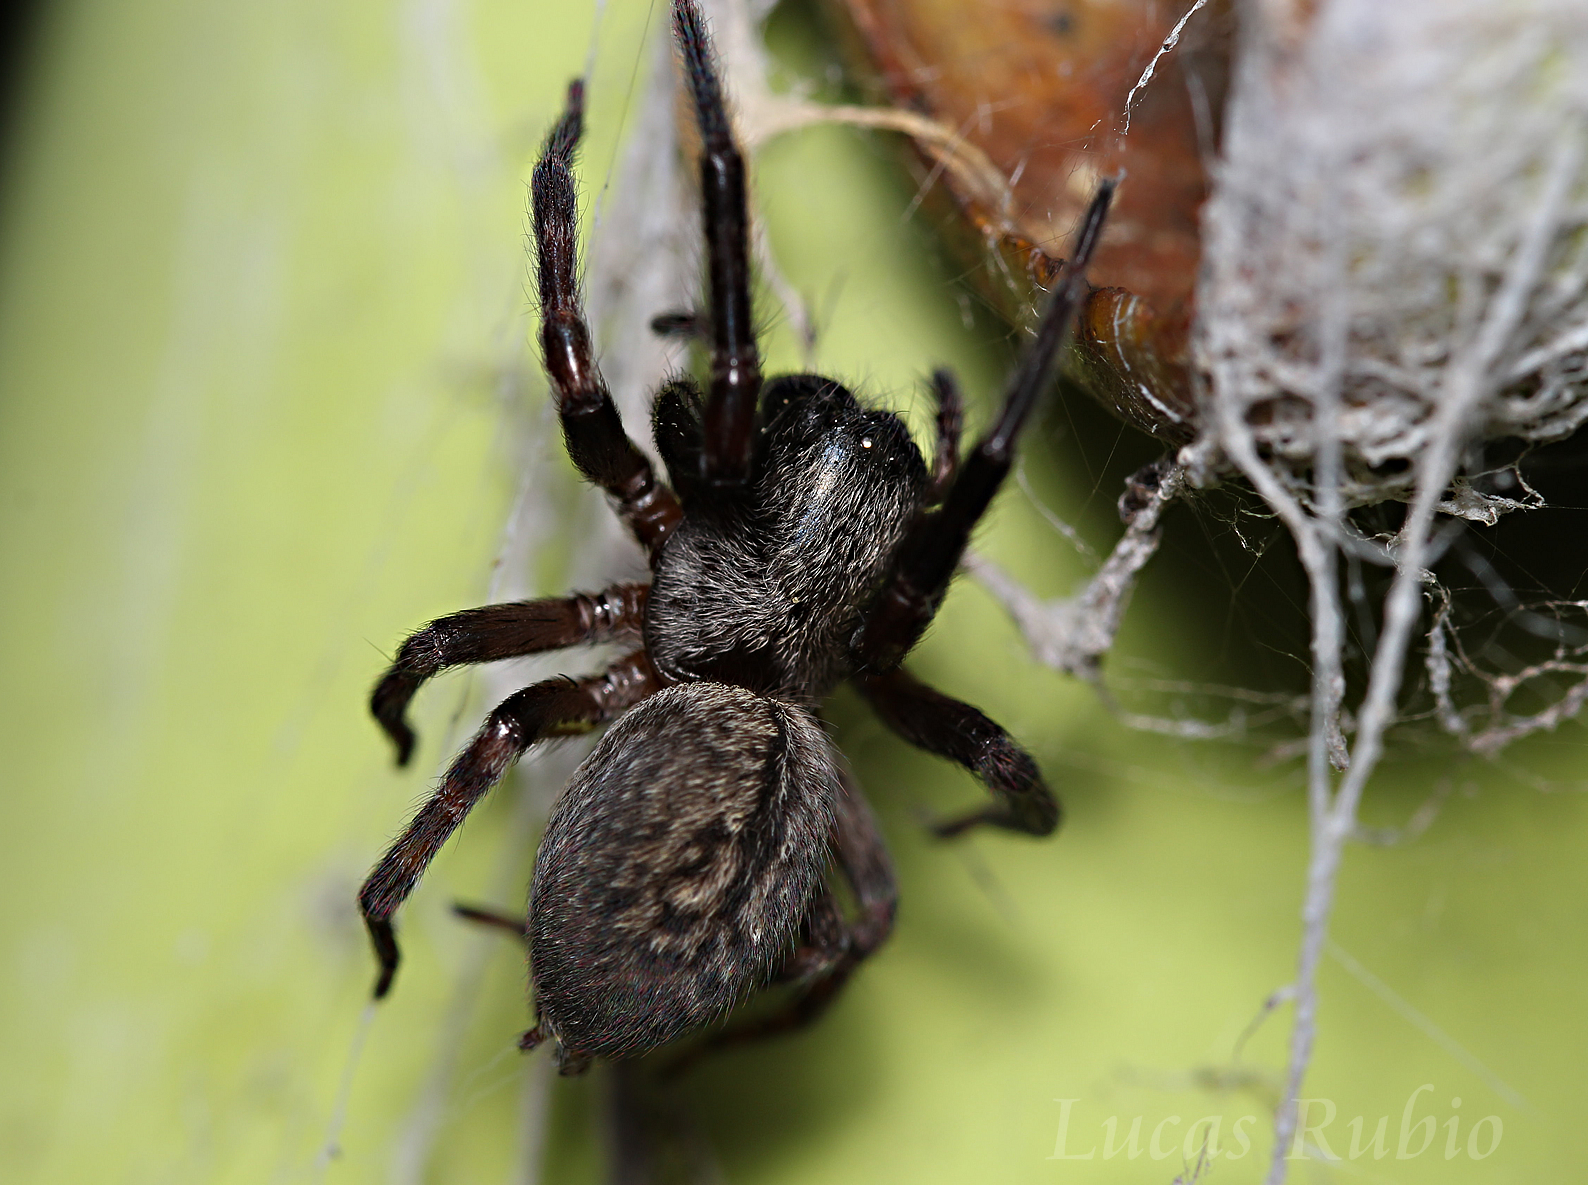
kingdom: Animalia
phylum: Arthropoda
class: Arachnida
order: Araneae
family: Desidae
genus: Badumna
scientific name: Badumna longinqua
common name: Gray house spider
